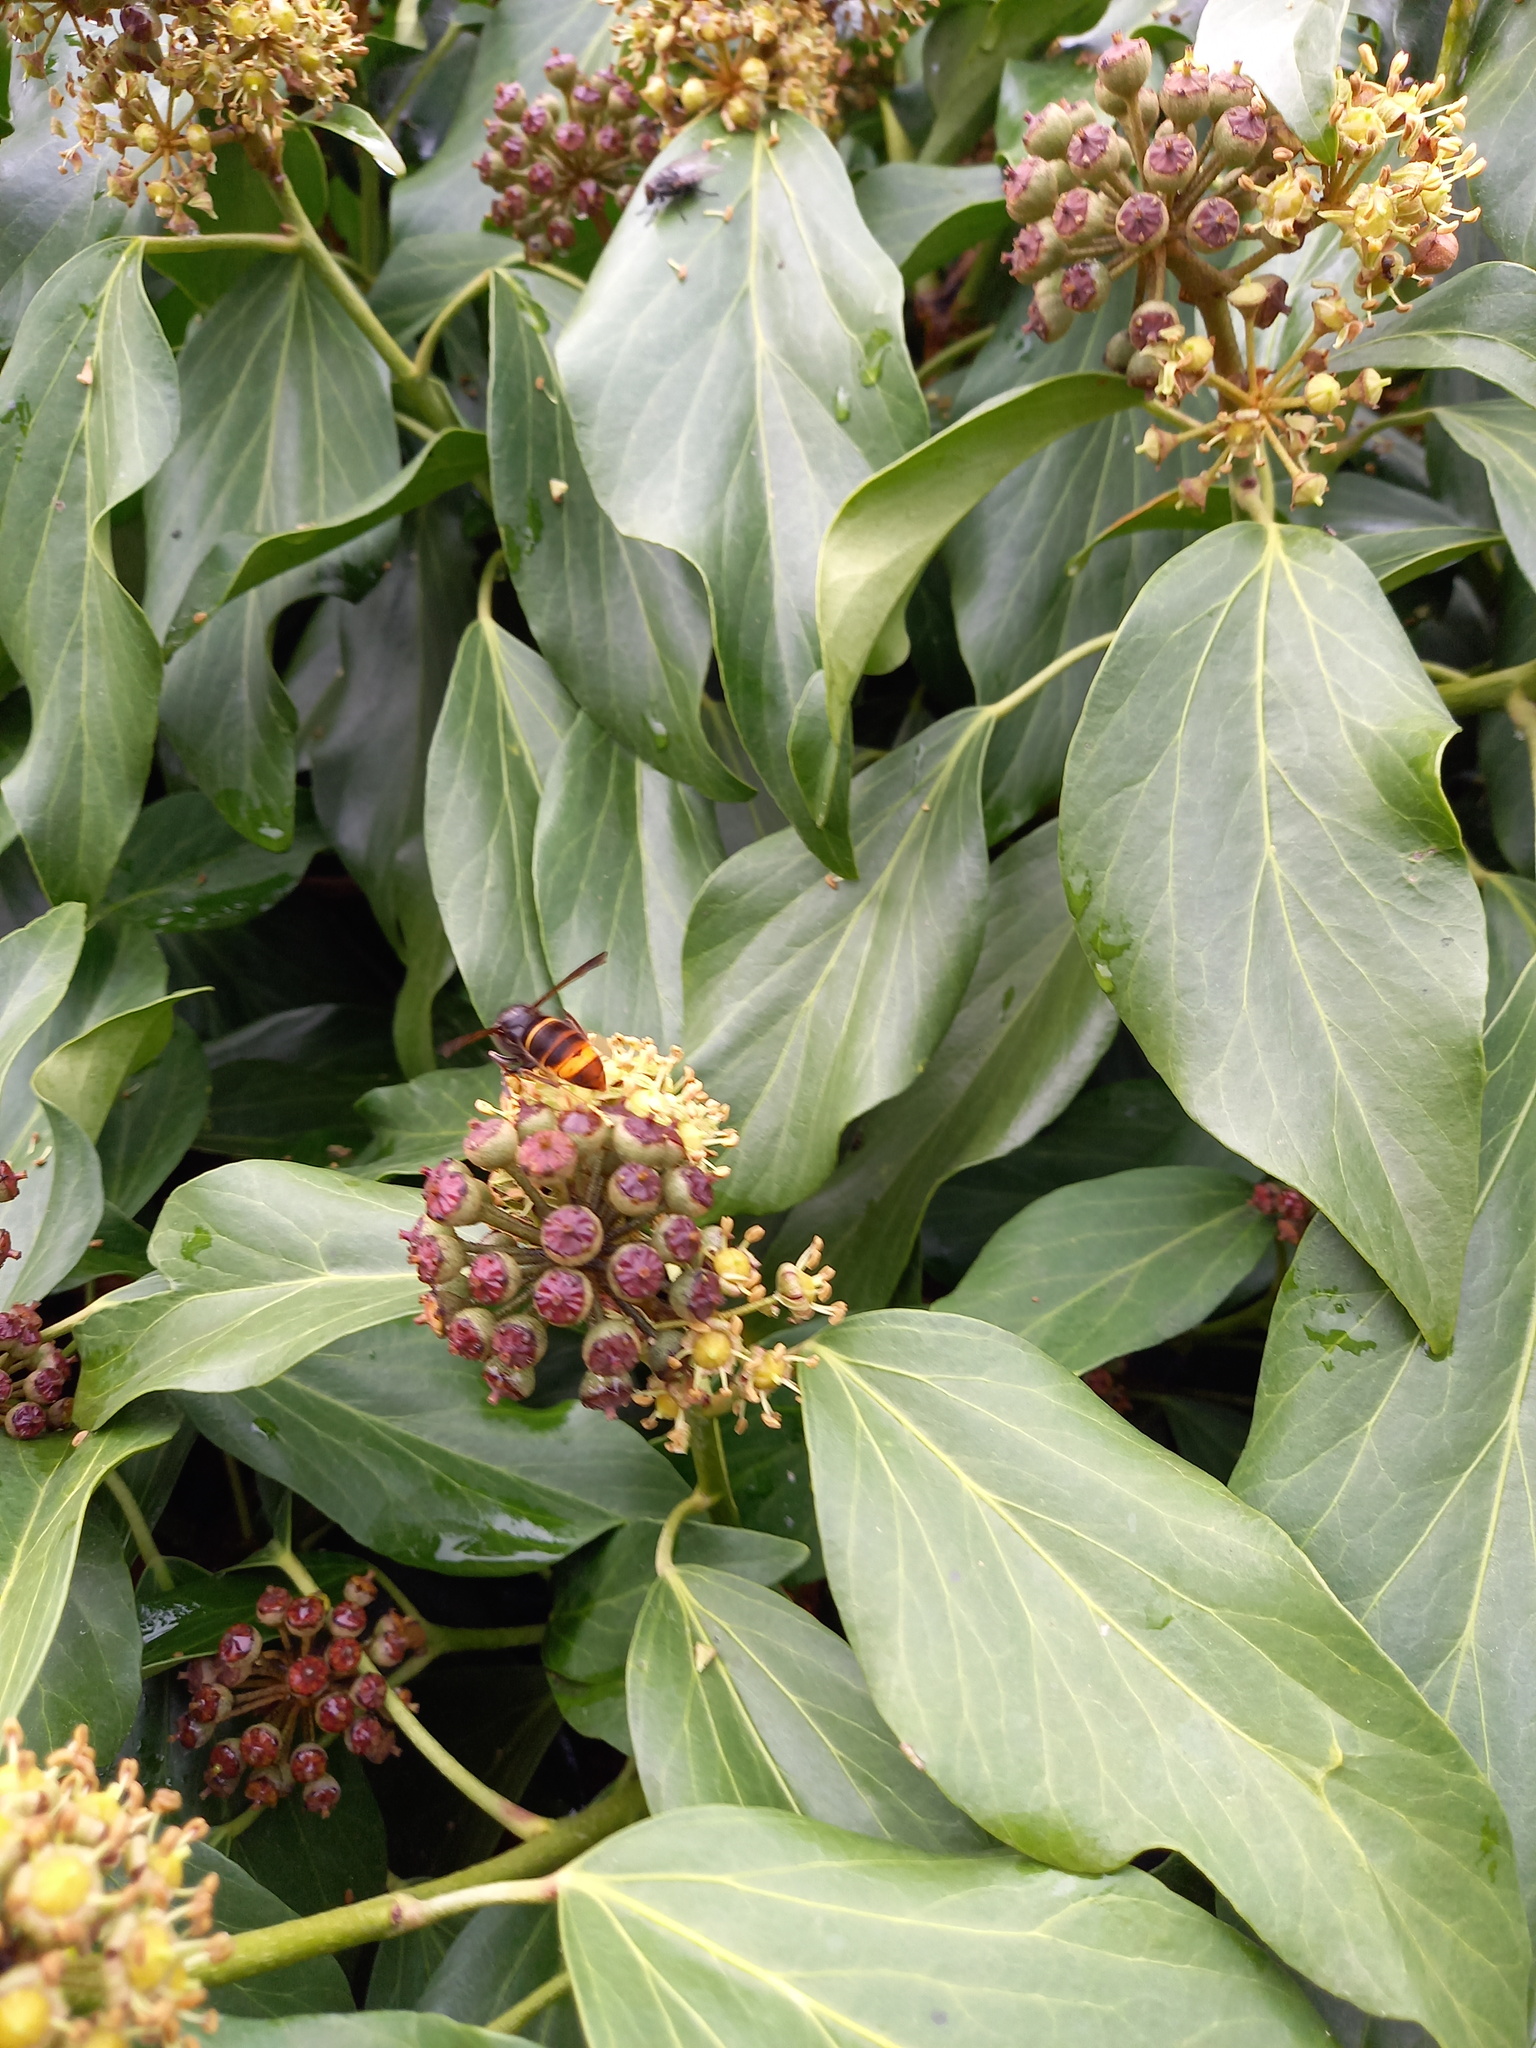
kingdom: Animalia
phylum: Arthropoda
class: Insecta
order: Hymenoptera
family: Vespidae
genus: Vespa
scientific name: Vespa velutina
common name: Asian hornet
